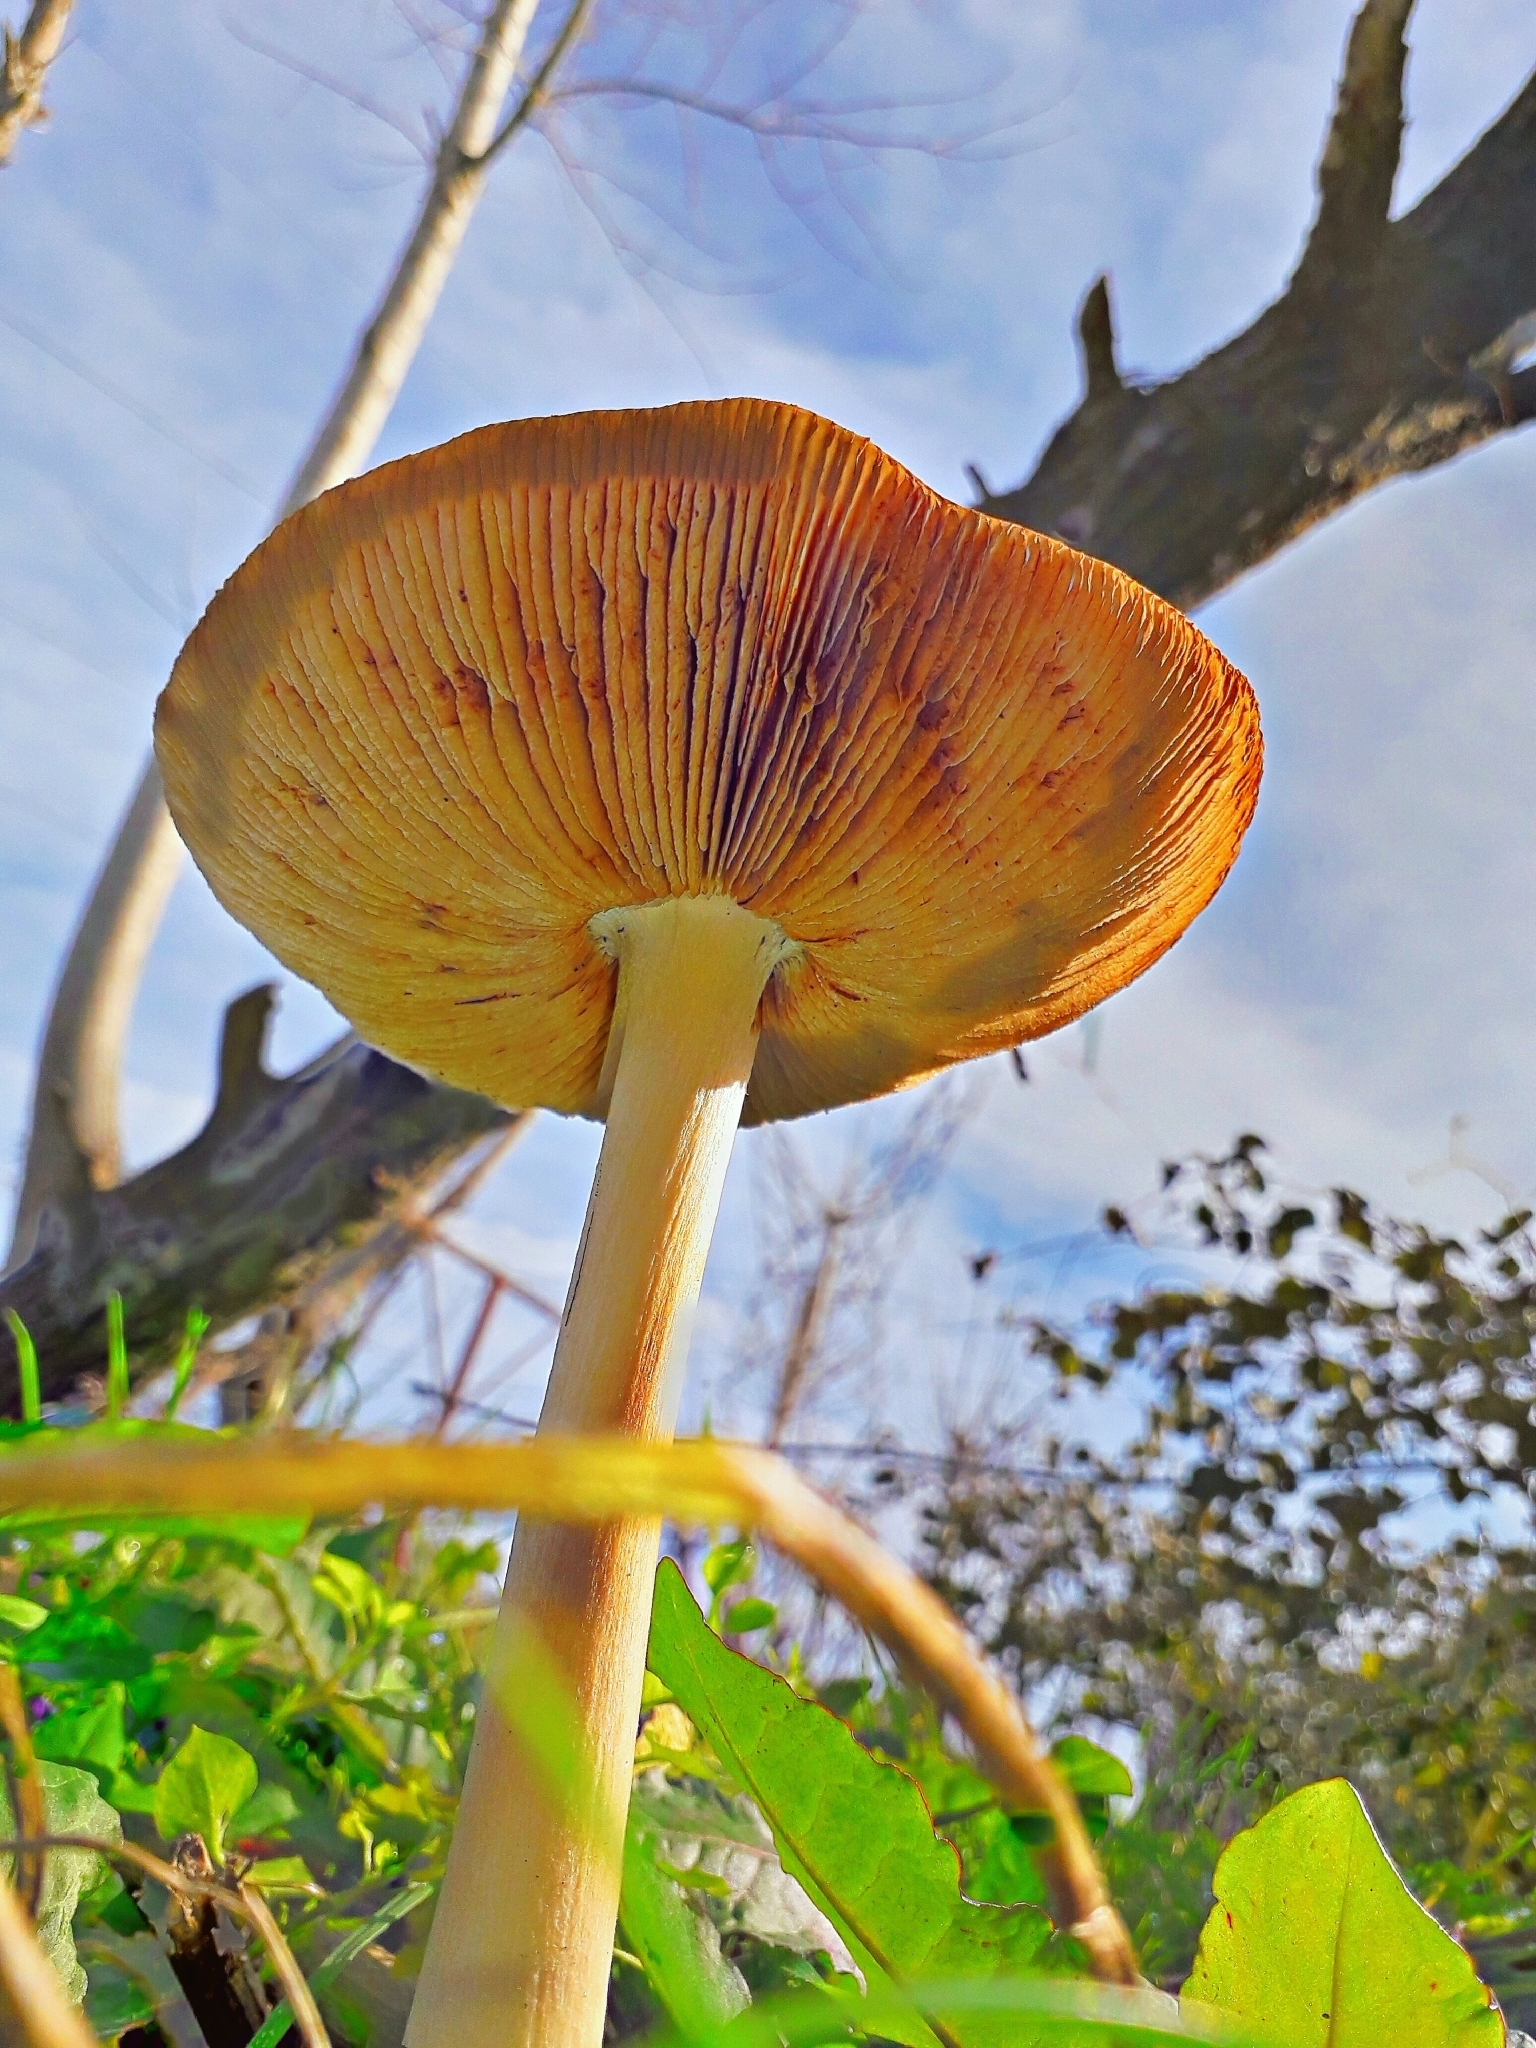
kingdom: Fungi
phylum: Basidiomycota
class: Agaricomycetes
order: Agaricales
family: Pluteaceae
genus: Volvopluteus
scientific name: Volvopluteus gloiocephalus
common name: Stubble rosegill
